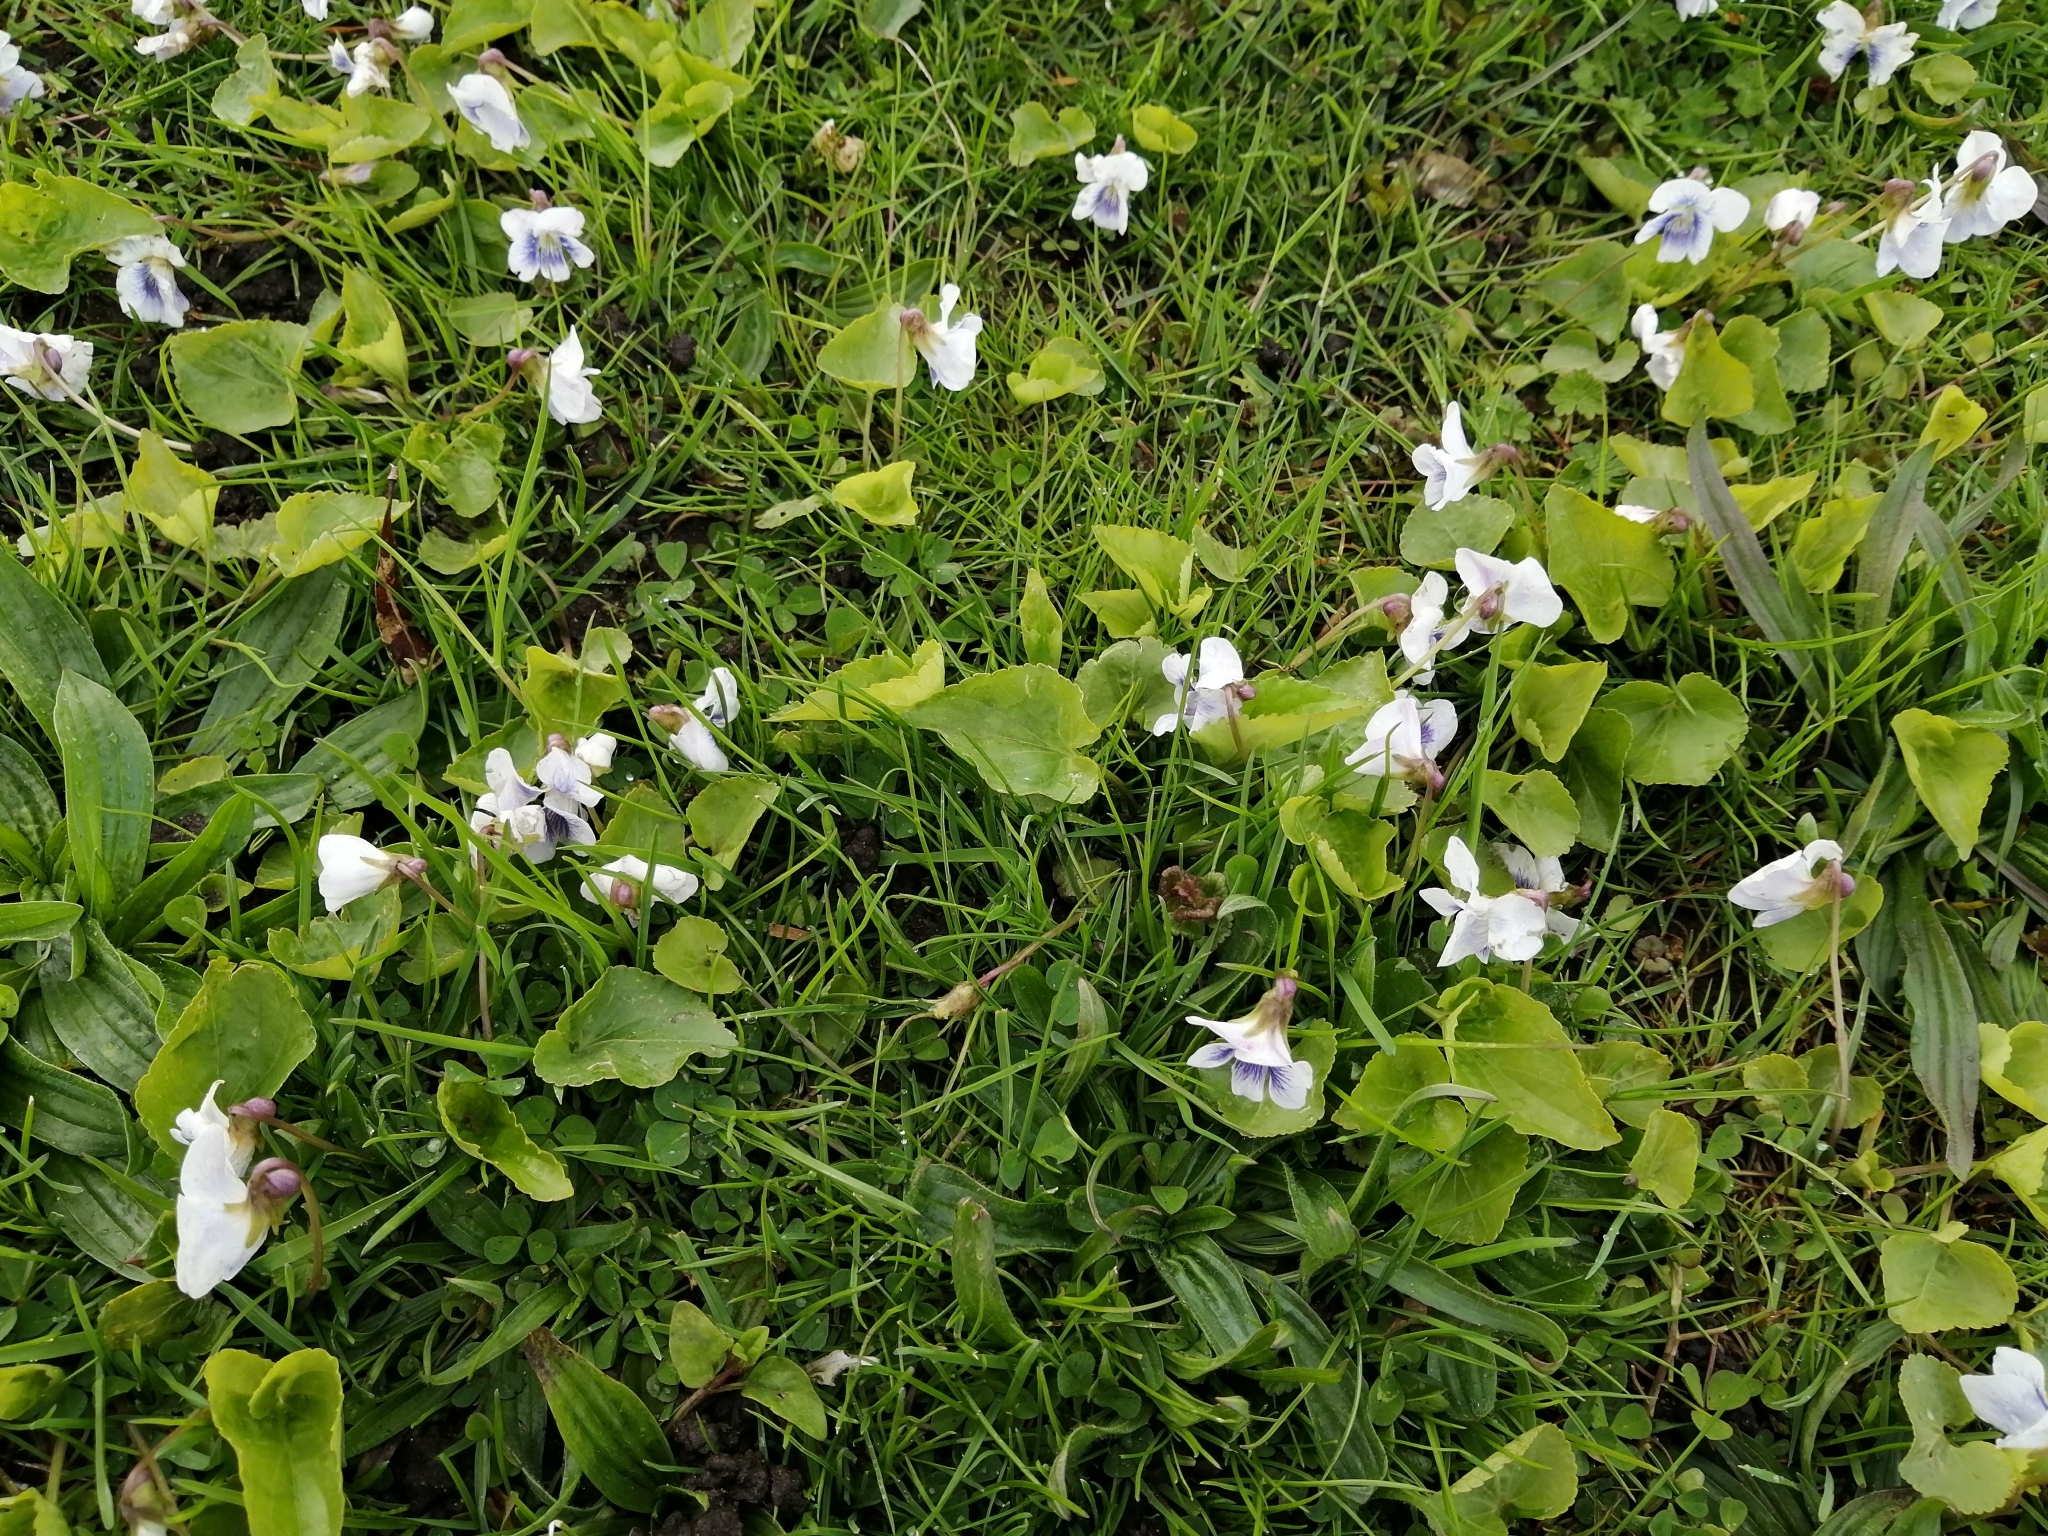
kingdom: Plantae
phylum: Tracheophyta
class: Magnoliopsida
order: Malpighiales
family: Violaceae
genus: Viola
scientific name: Viola sororia
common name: Dooryard violet
